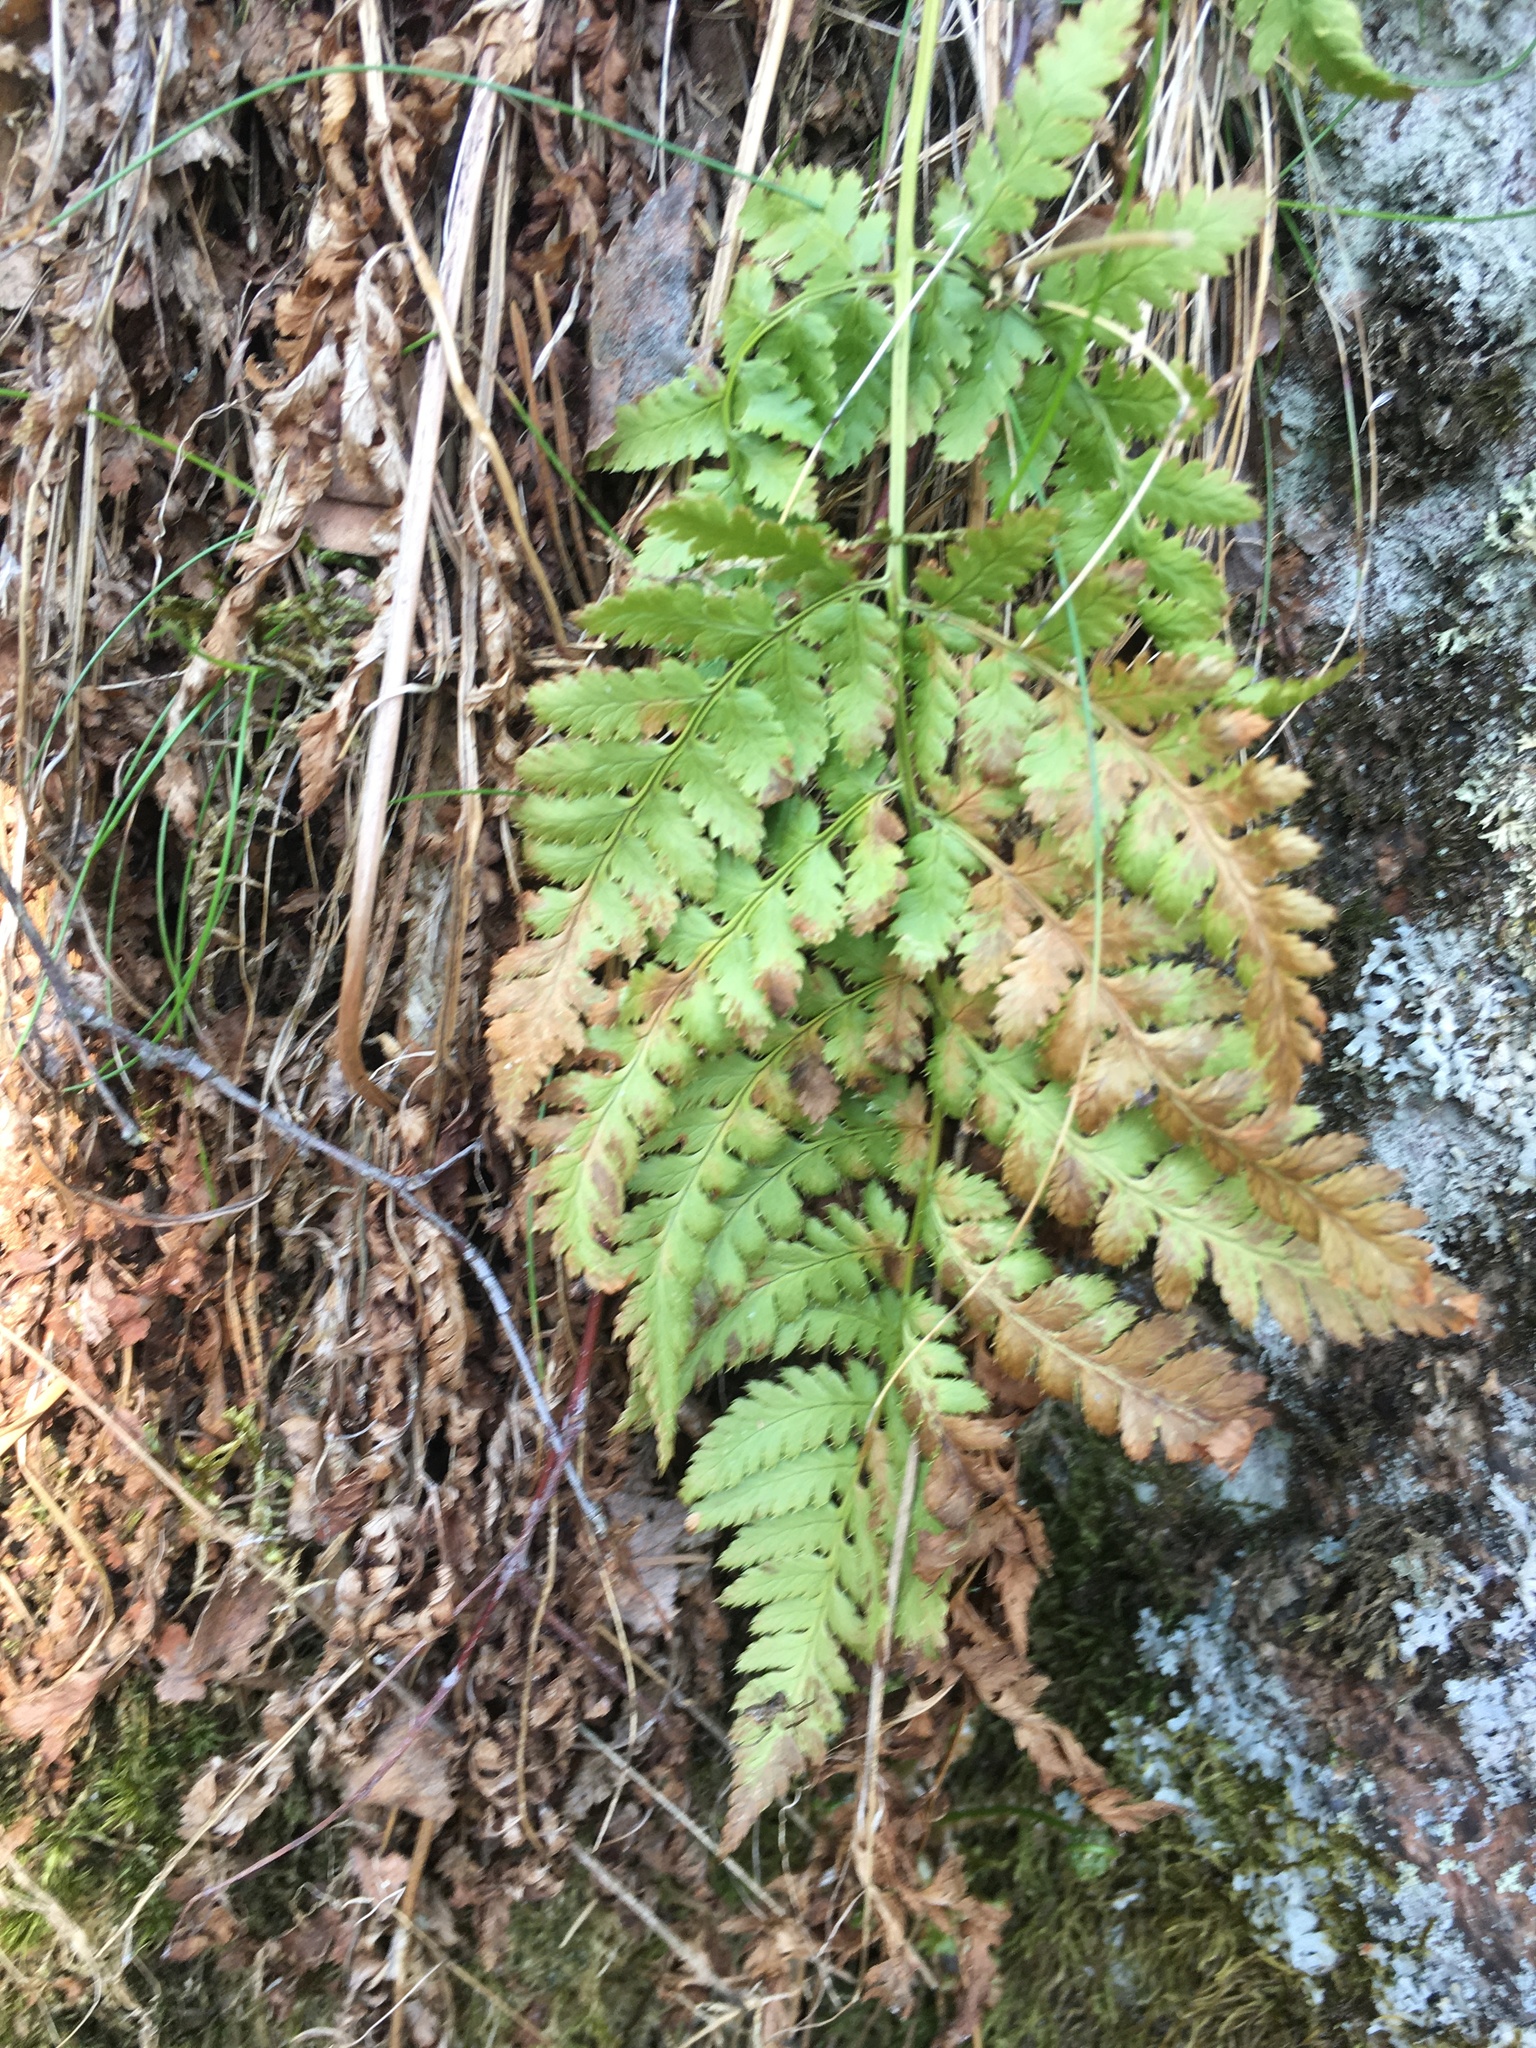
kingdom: Plantae
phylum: Tracheophyta
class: Polypodiopsida
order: Polypodiales
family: Dryopteridaceae
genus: Dryopteris
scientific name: Dryopteris carthusiana
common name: Narrow buckler-fern
